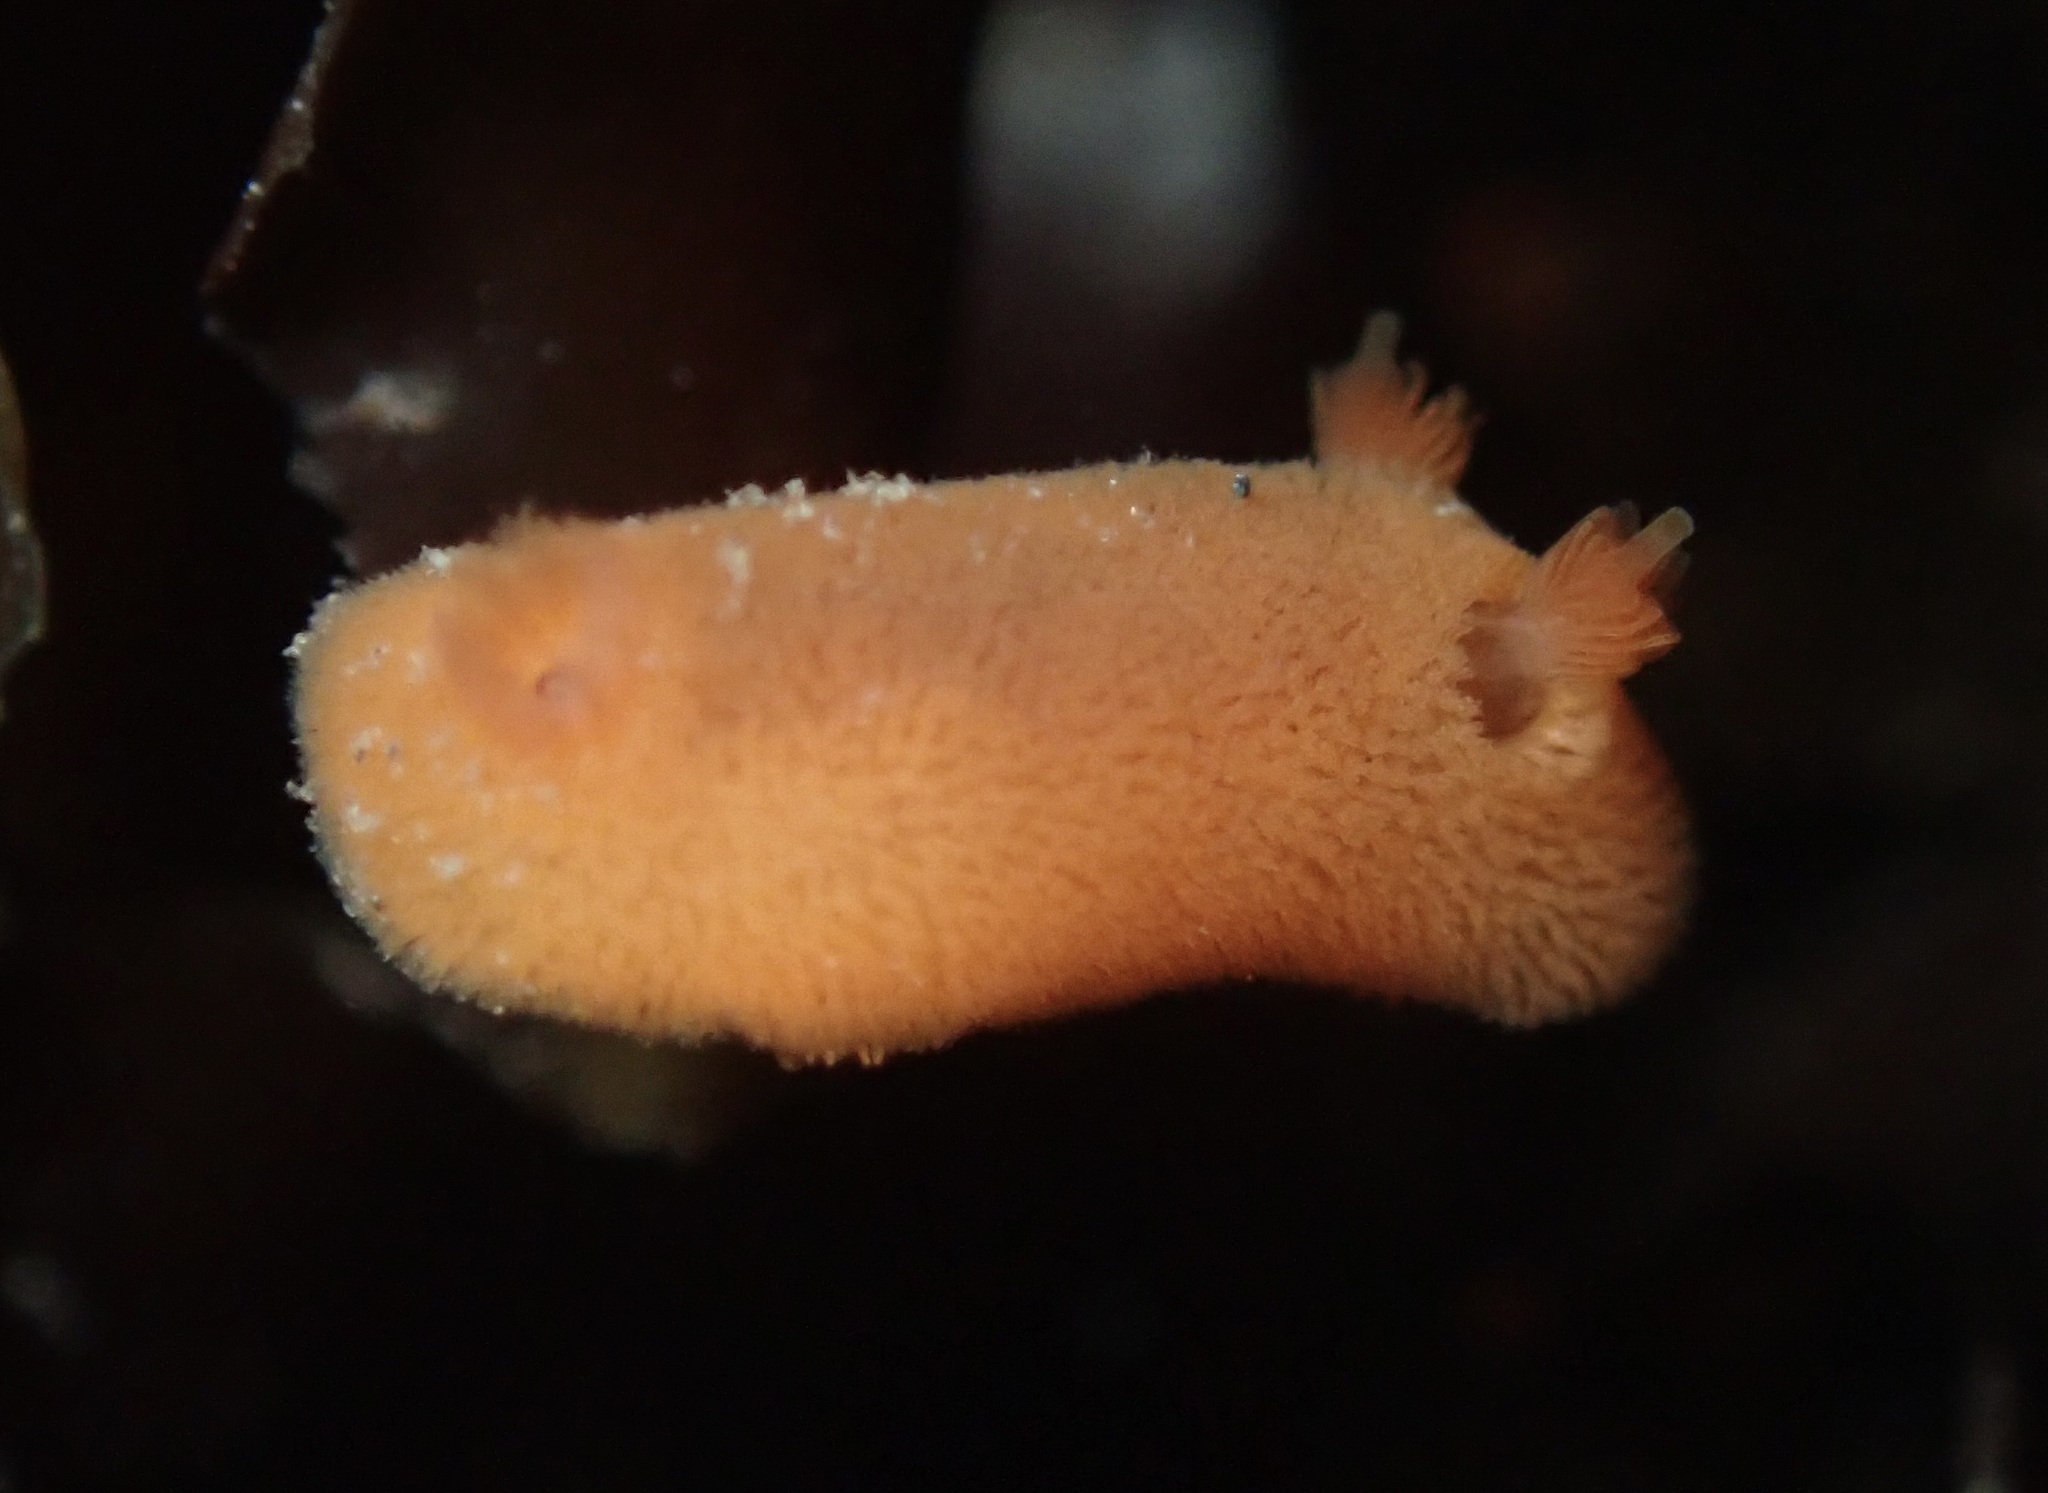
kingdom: Animalia
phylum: Mollusca
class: Gastropoda
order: Nudibranchia
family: Discodorididae
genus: Rostanga
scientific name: Rostanga pulchra
